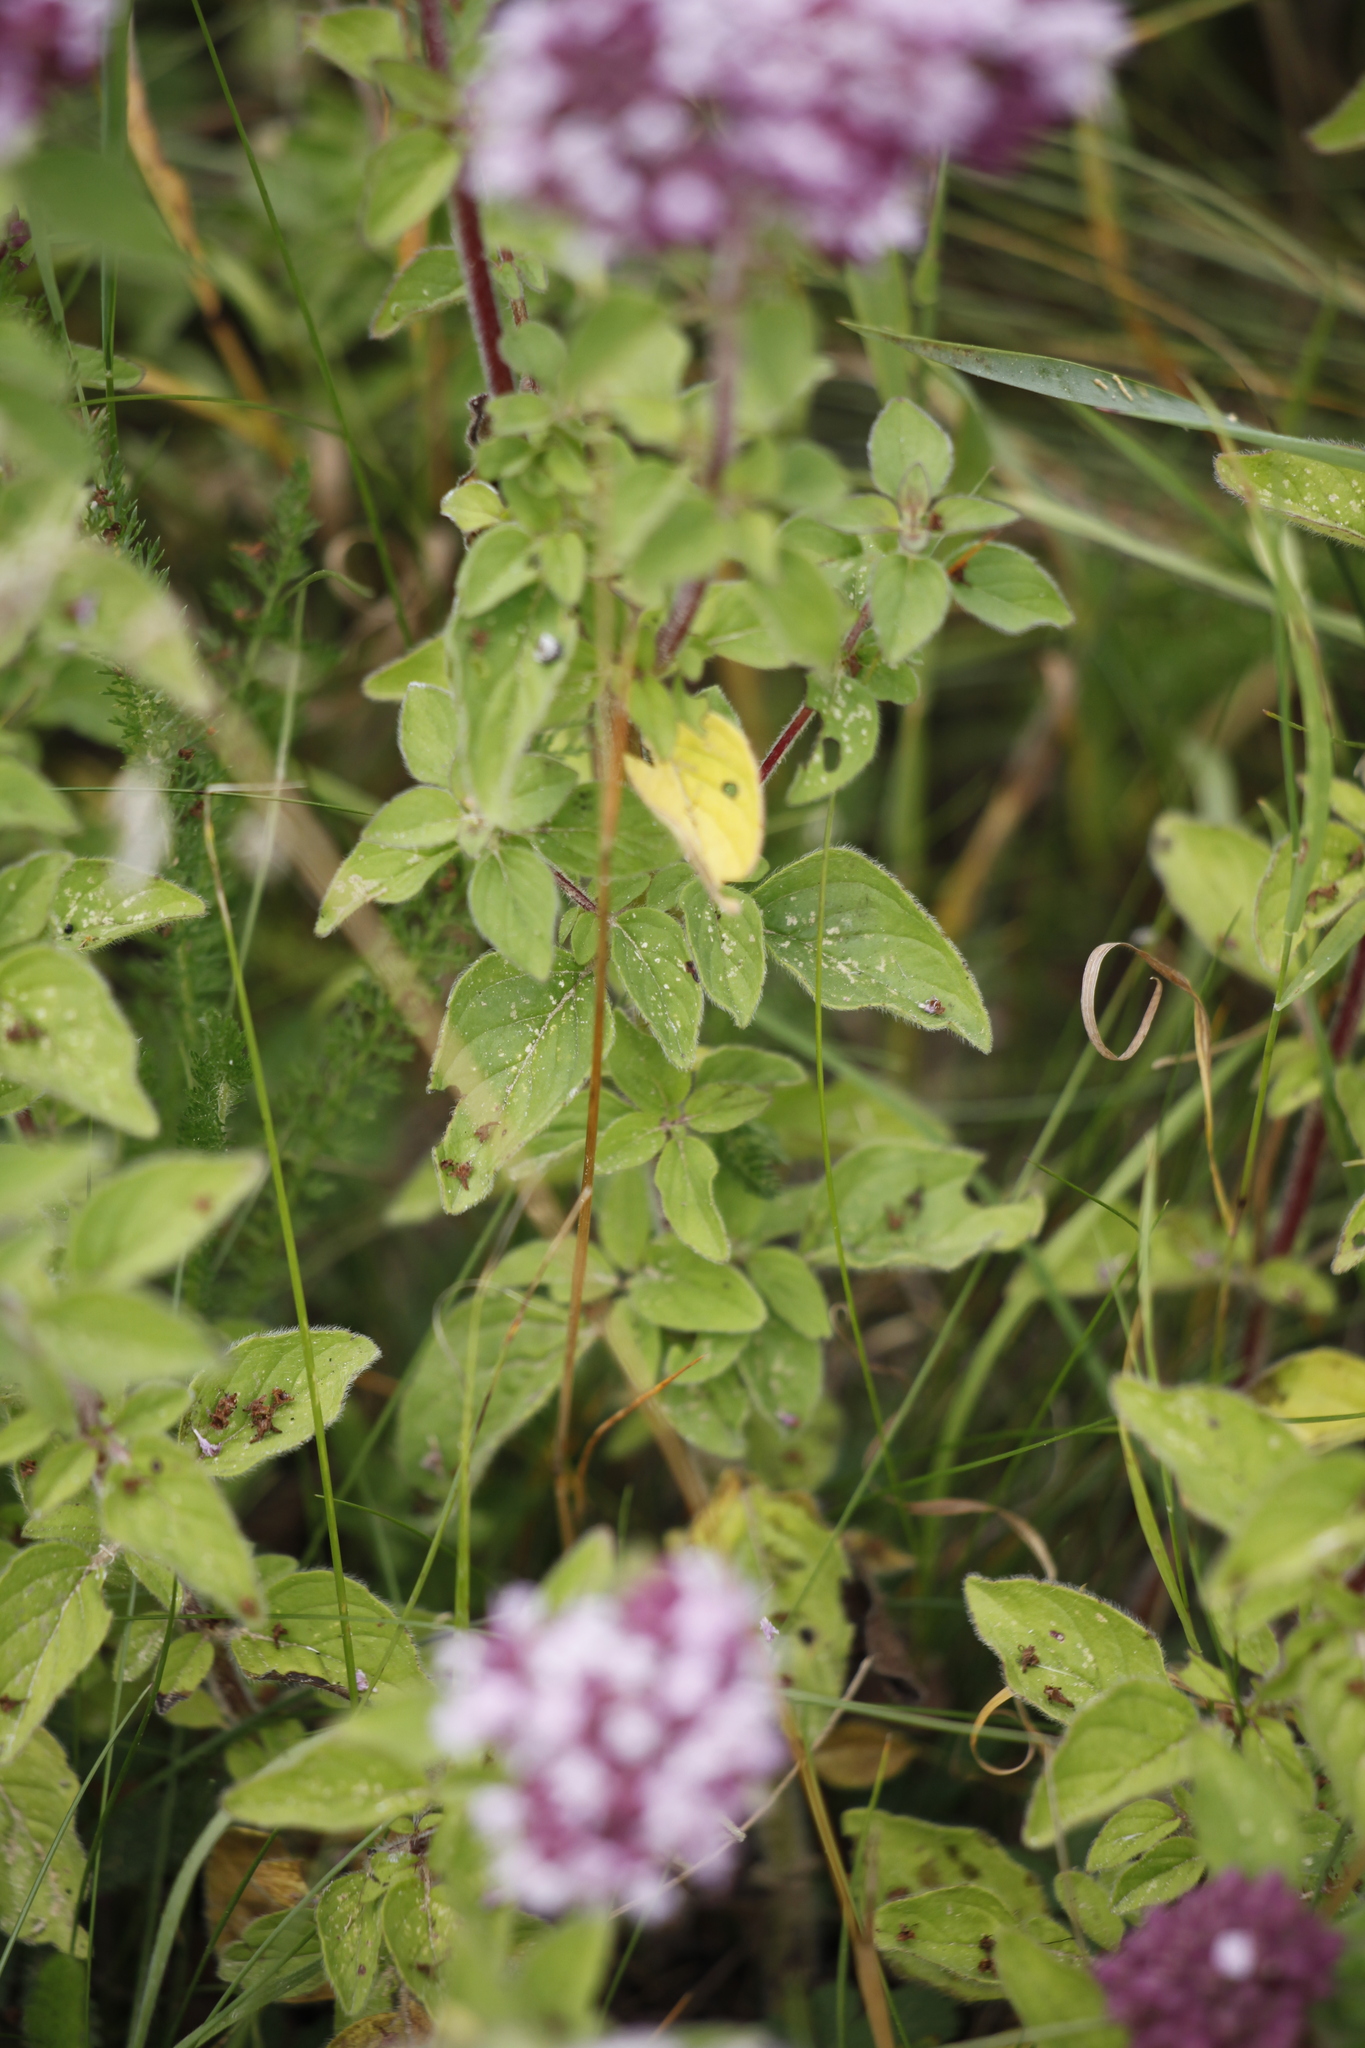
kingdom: Plantae
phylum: Tracheophyta
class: Magnoliopsida
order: Lamiales
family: Lamiaceae
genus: Origanum
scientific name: Origanum vulgare
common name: Wild marjoram
